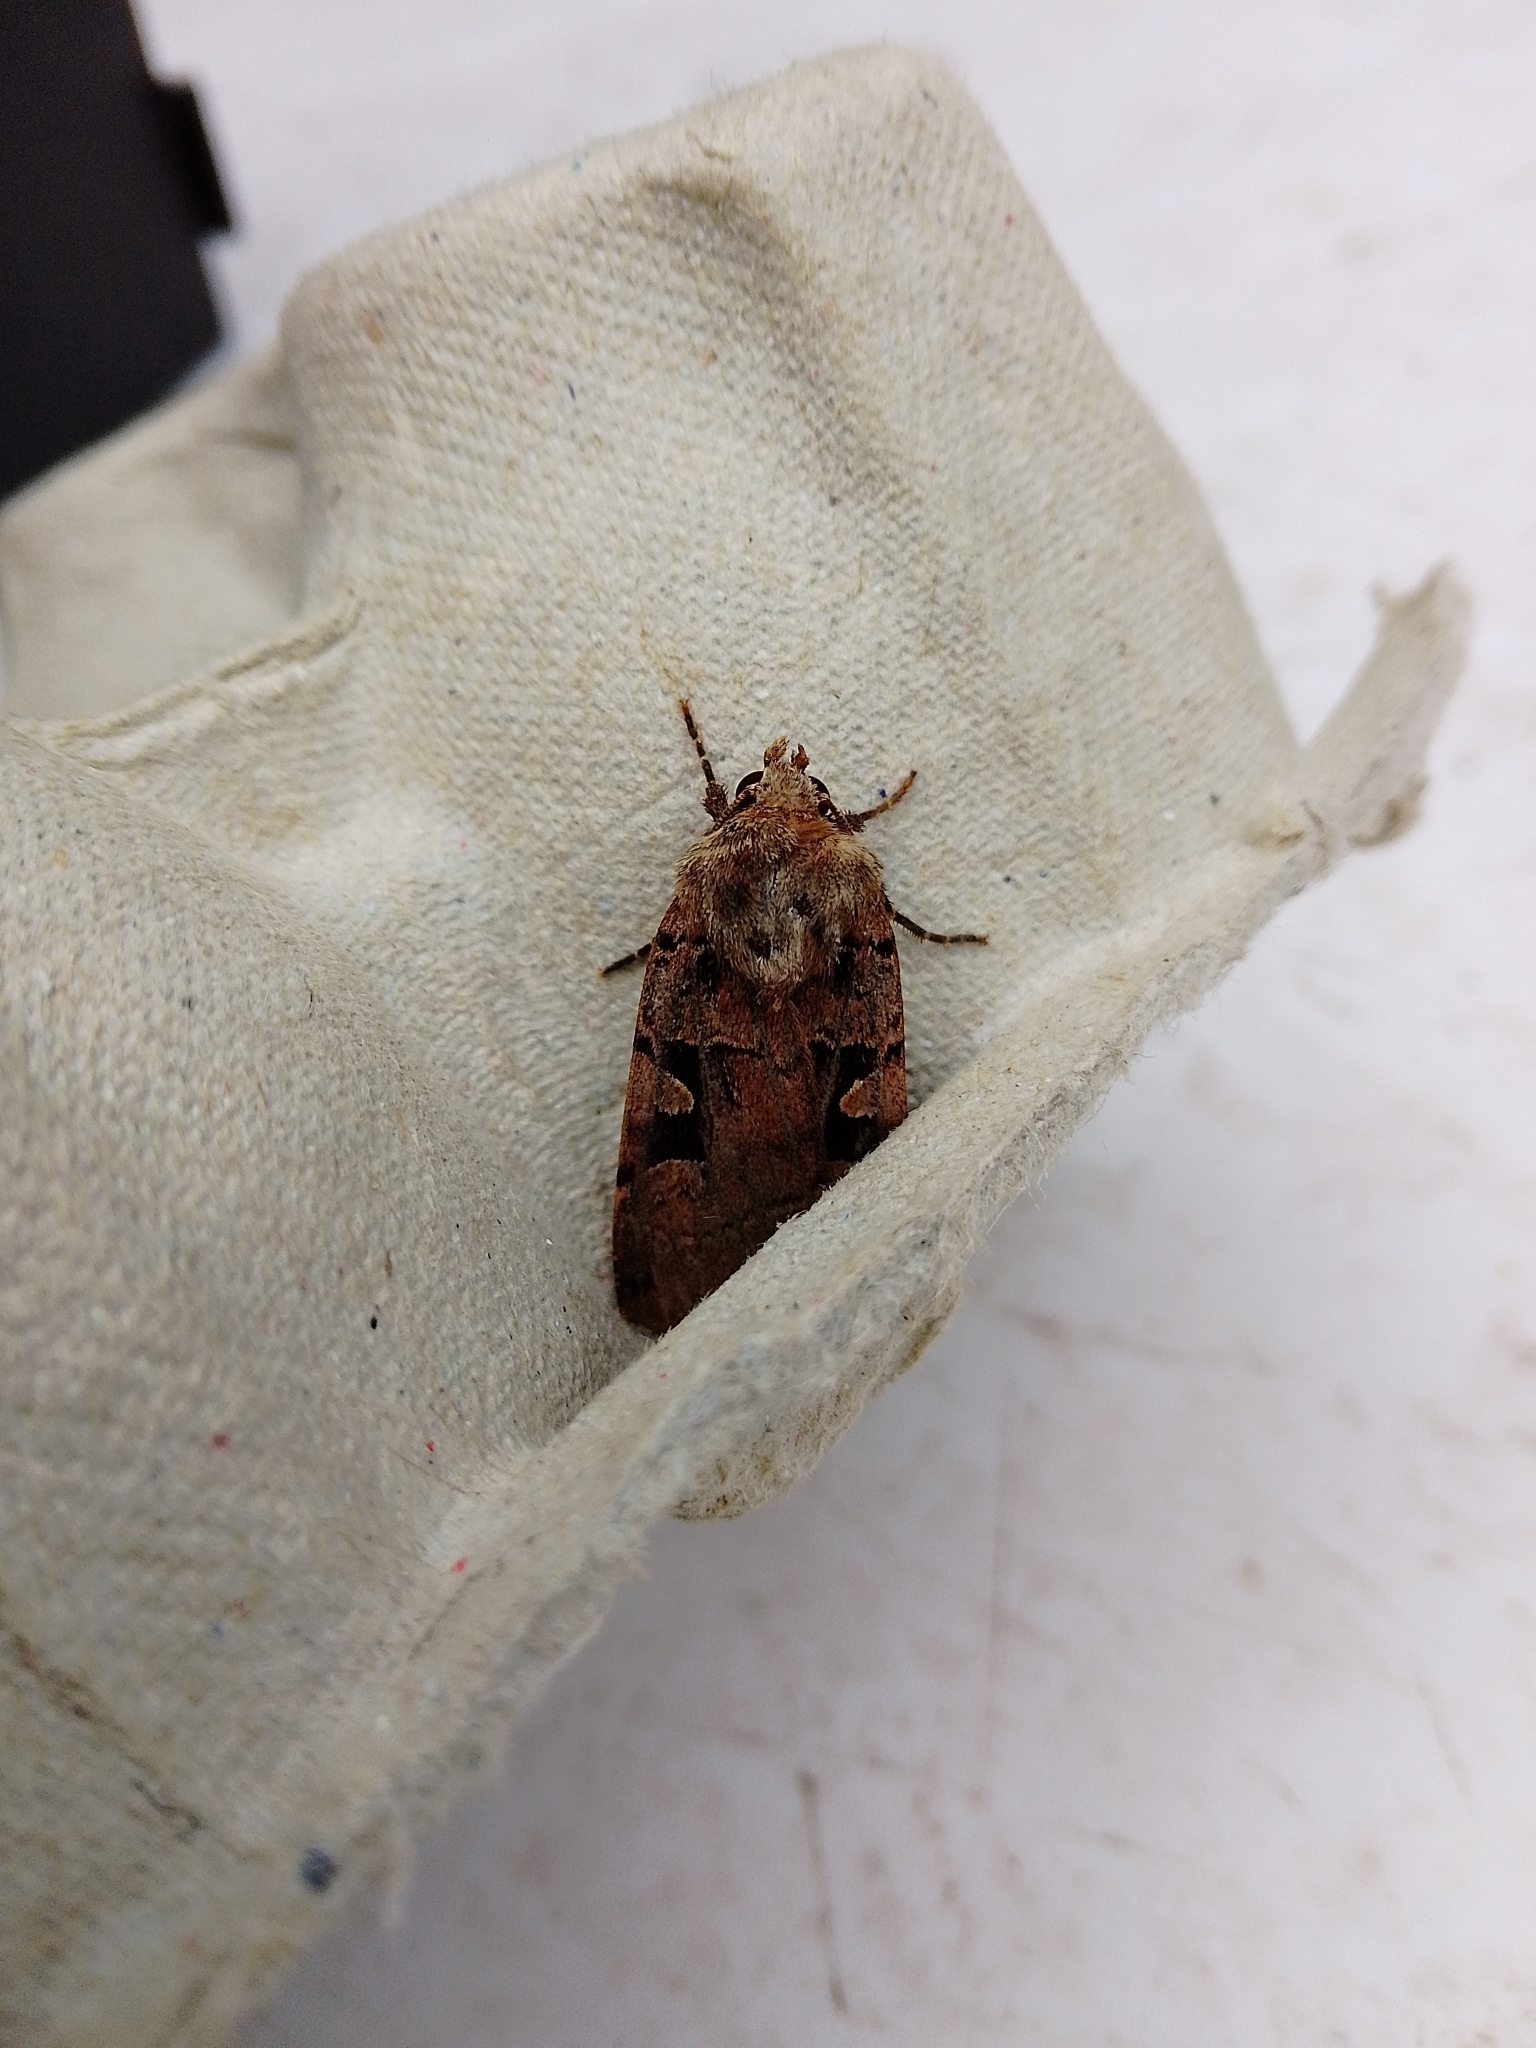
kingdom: Animalia
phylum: Arthropoda
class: Insecta
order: Lepidoptera
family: Noctuidae
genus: Xestia
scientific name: Xestia triangulum
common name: Double square-spot
